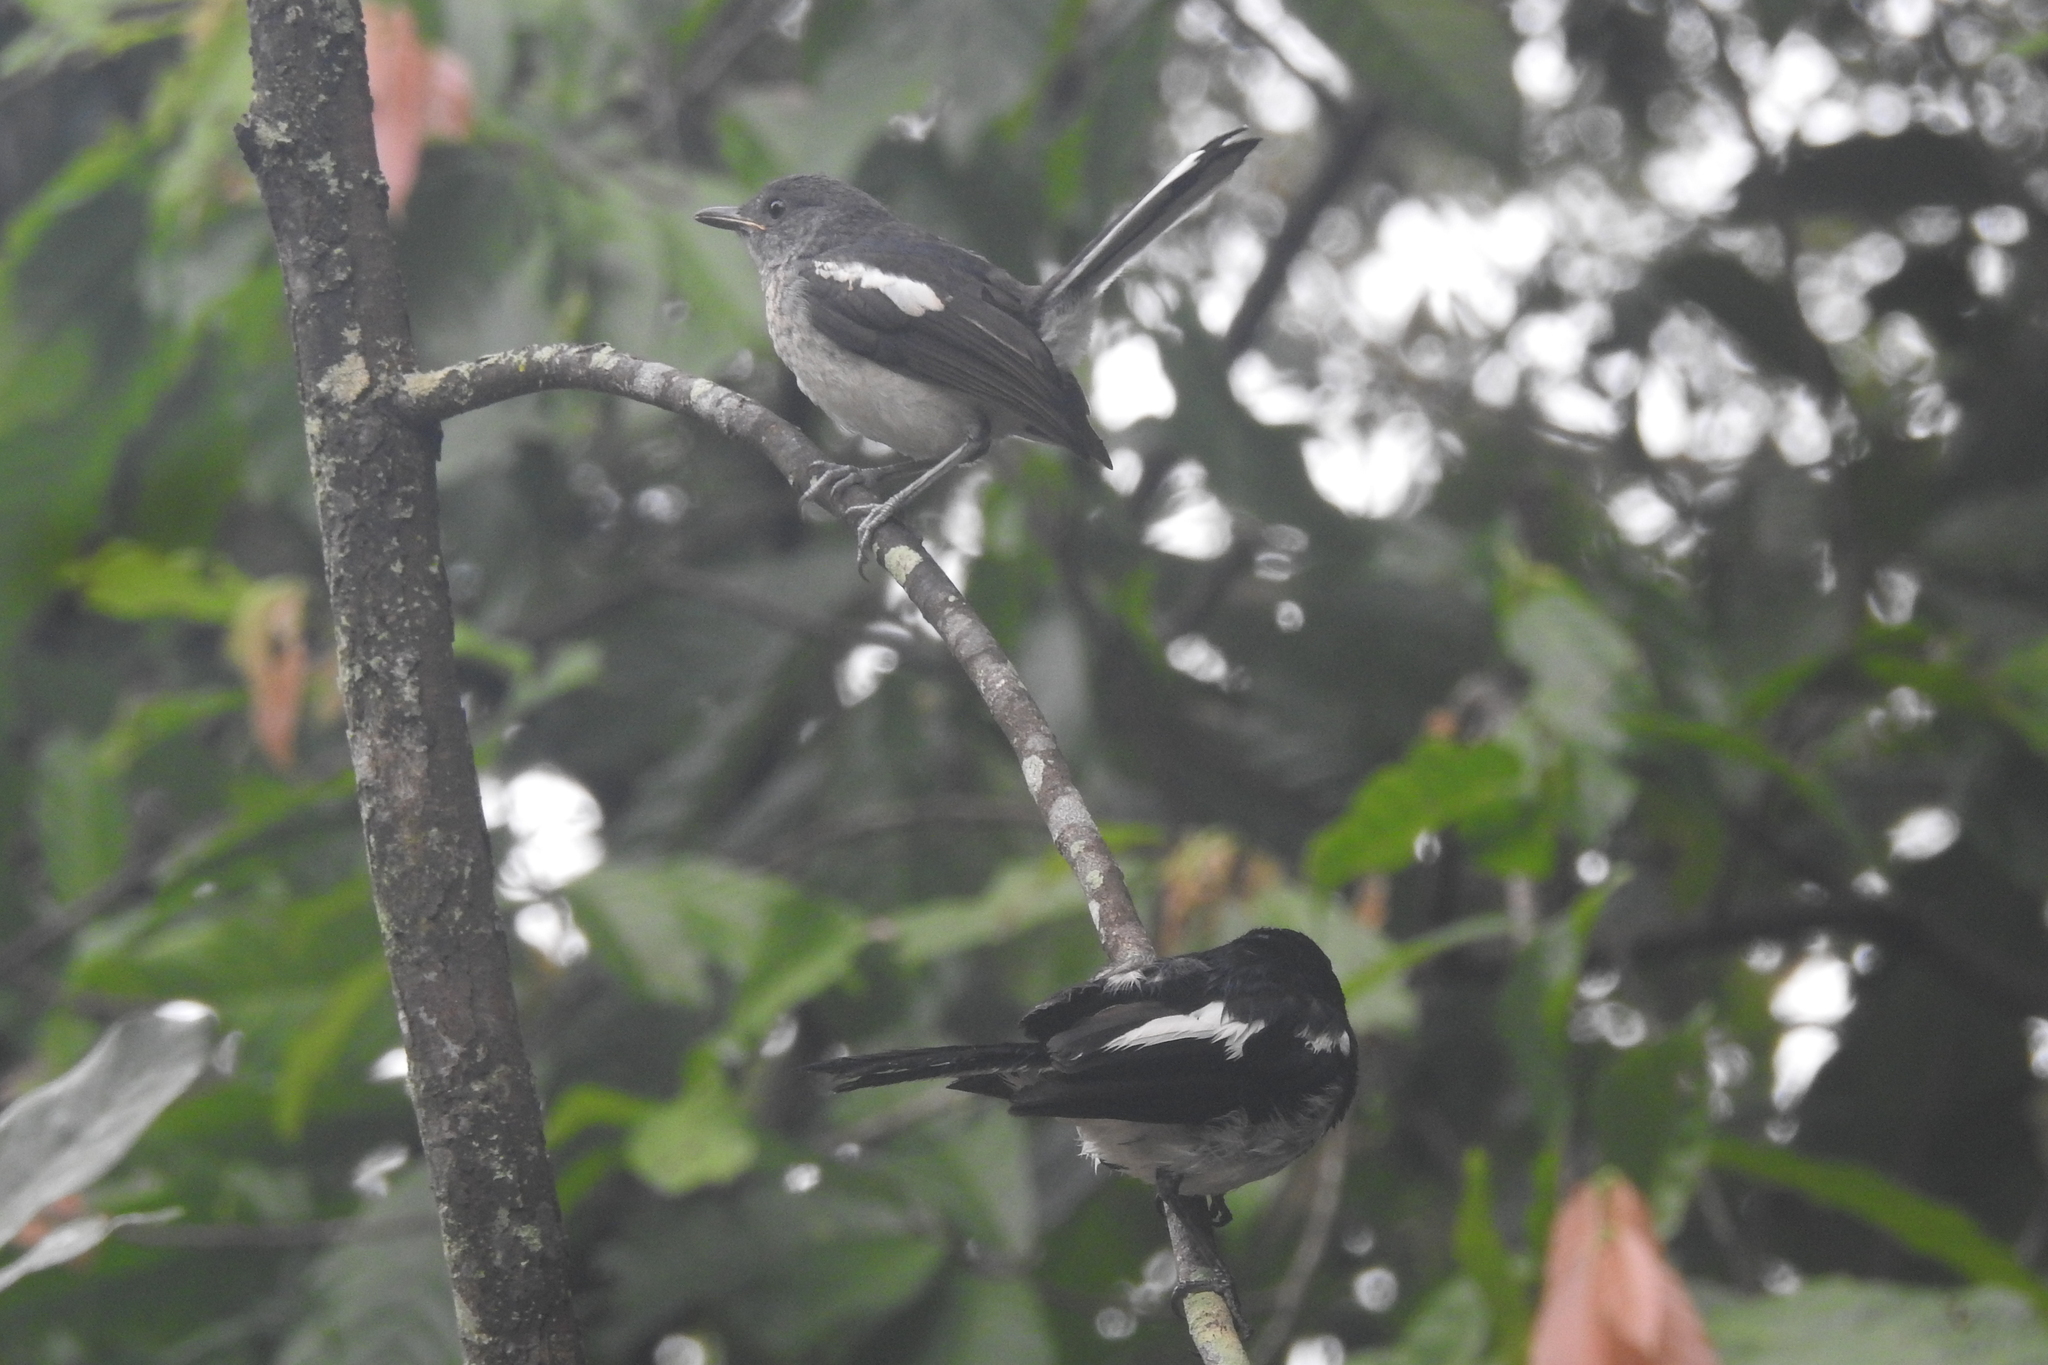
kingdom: Animalia
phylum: Chordata
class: Aves
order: Passeriformes
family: Muscicapidae
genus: Copsychus
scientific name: Copsychus saularis
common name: Oriental magpie-robin
